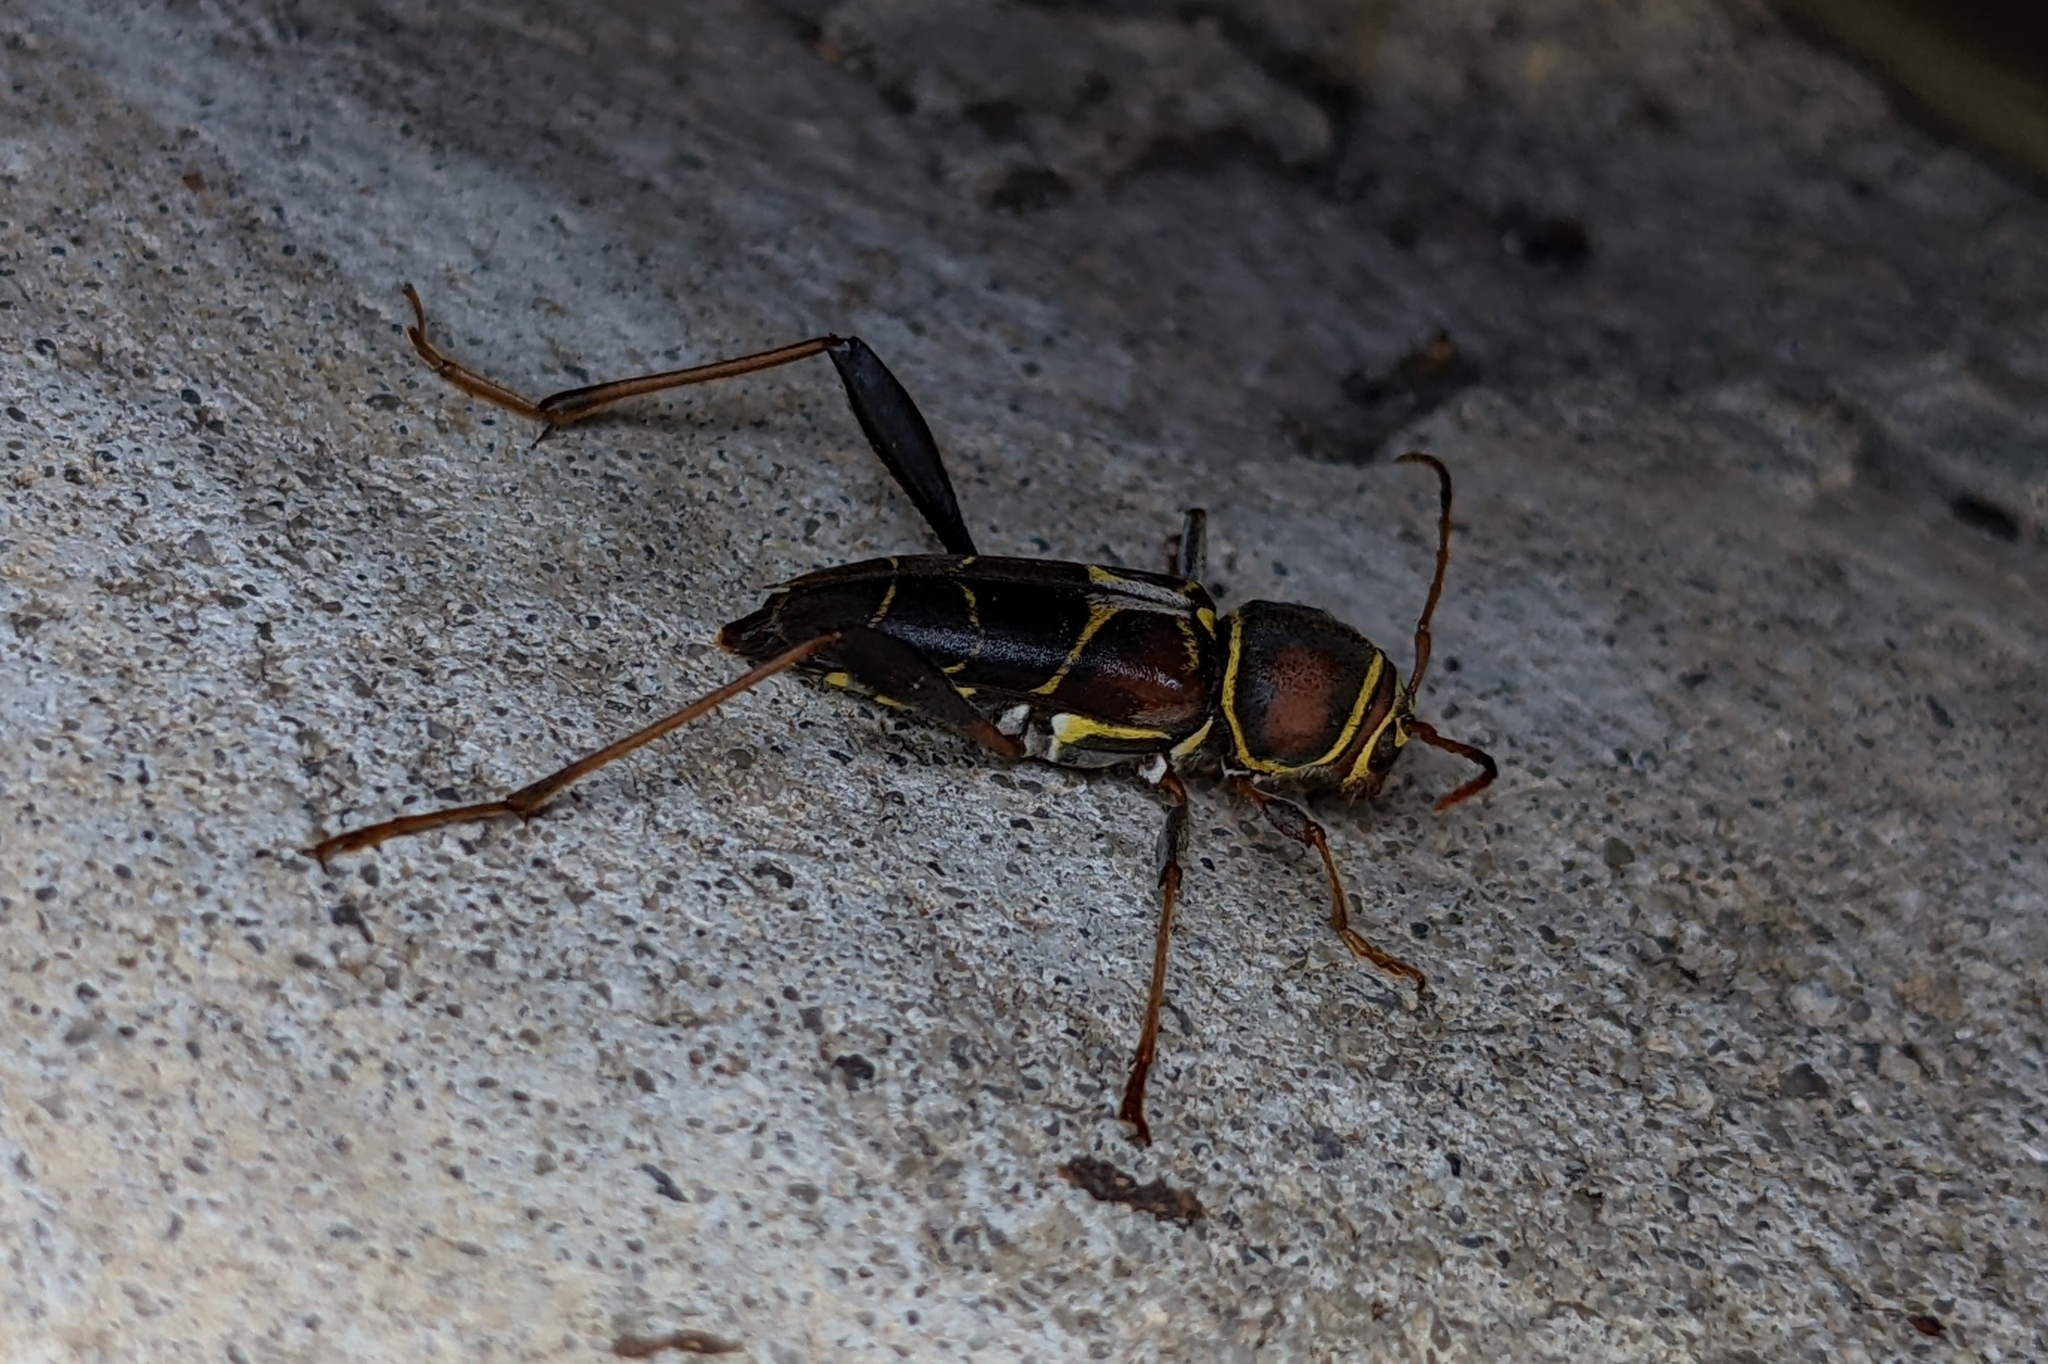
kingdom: Animalia
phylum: Arthropoda
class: Insecta
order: Coleoptera
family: Cerambycidae
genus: Neoclytus
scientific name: Neoclytus mucronatus
